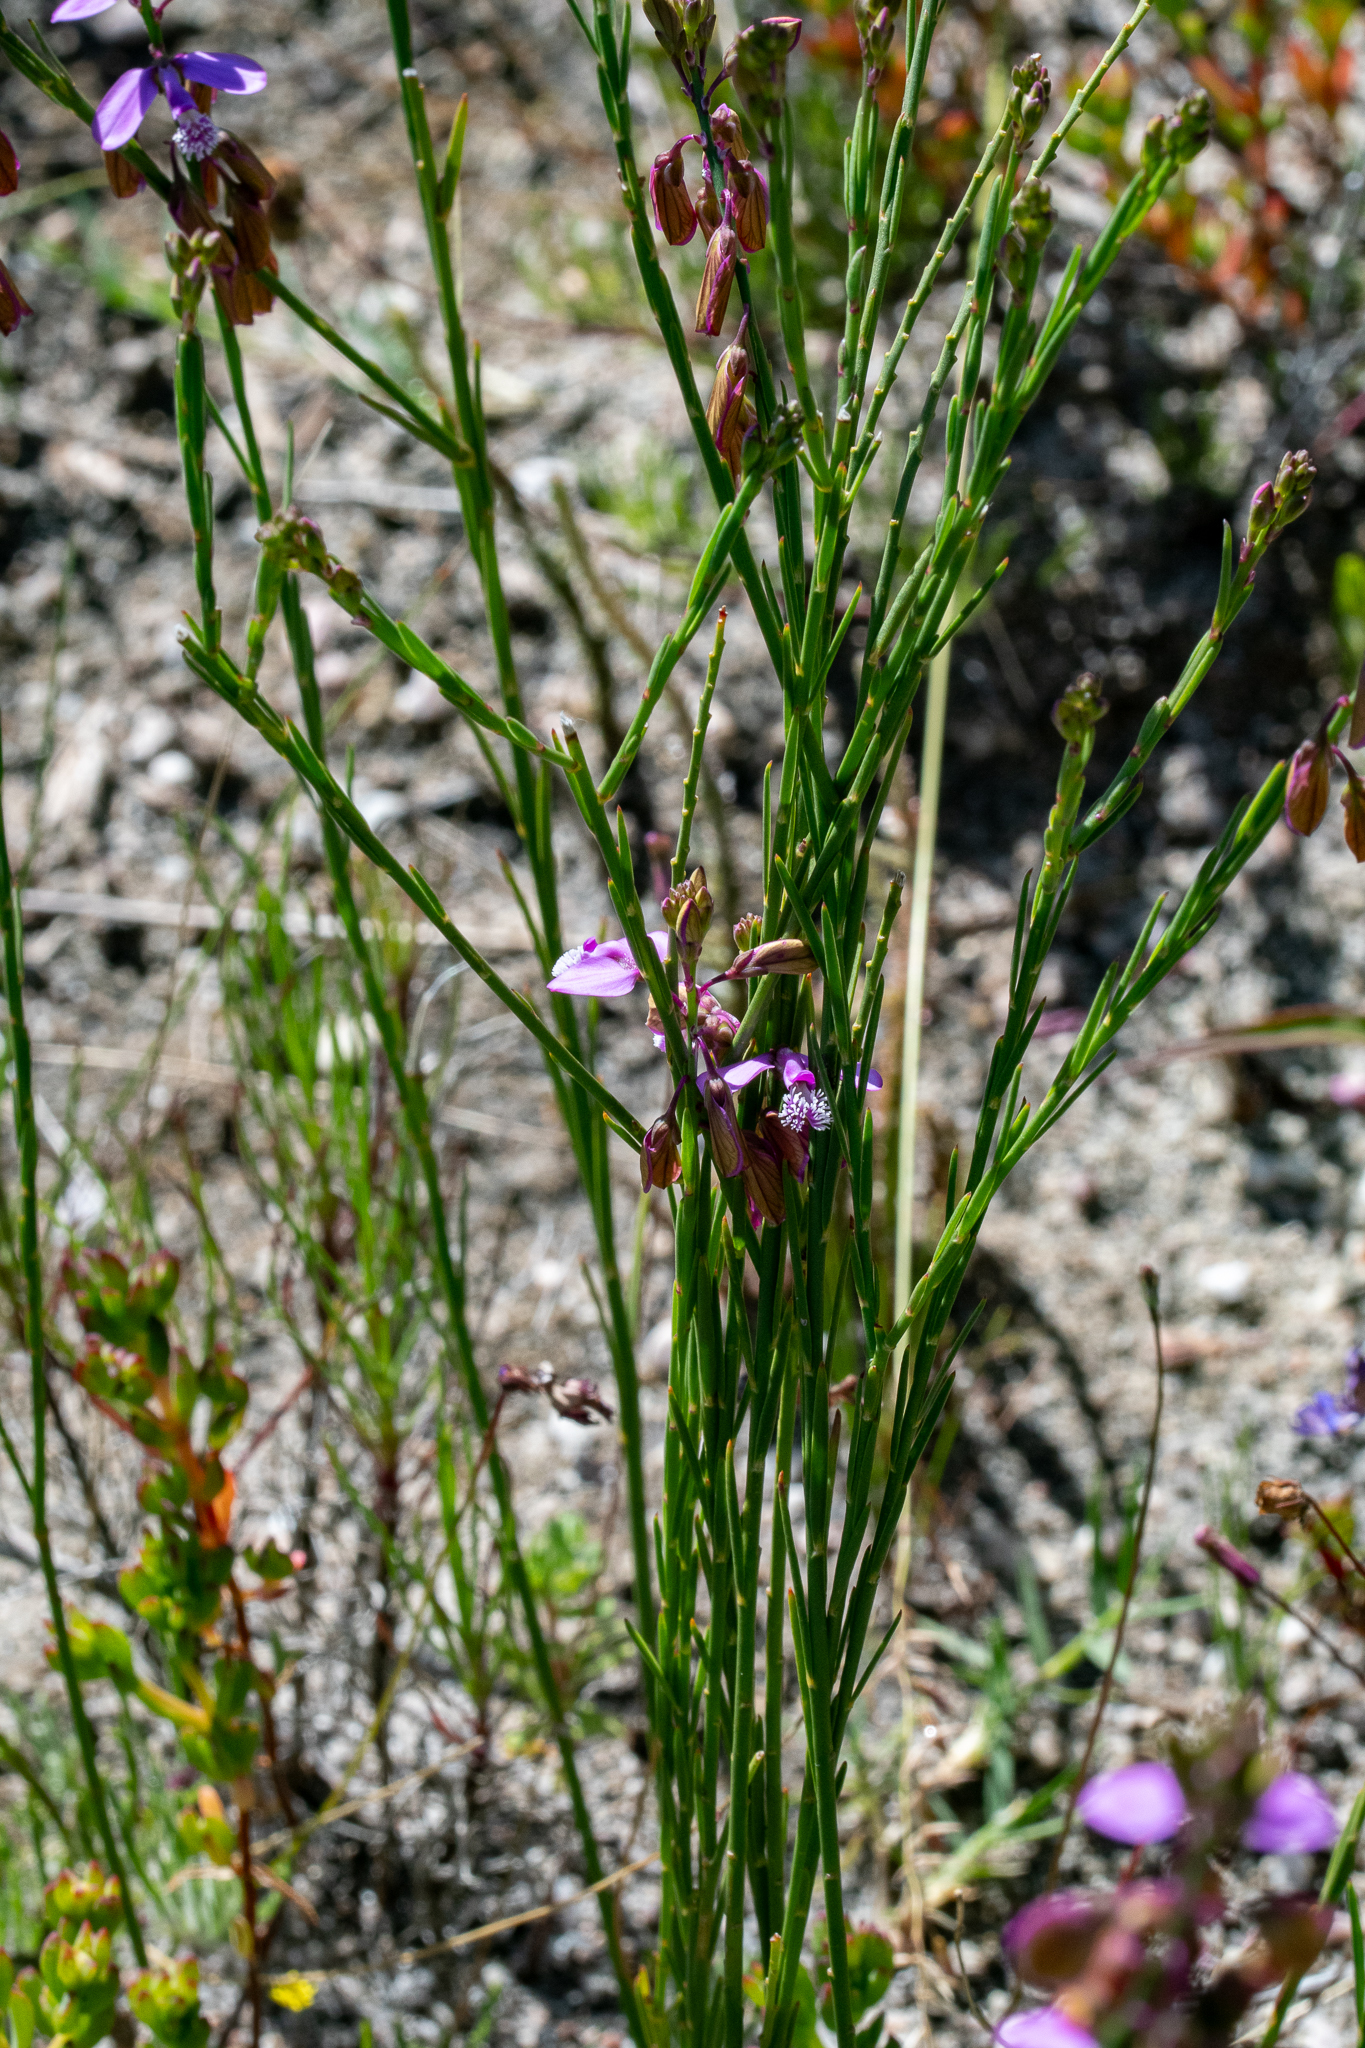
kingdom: Plantae
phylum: Tracheophyta
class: Magnoliopsida
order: Fabales
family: Polygalaceae
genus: Polygala
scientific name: Polygala garcini
